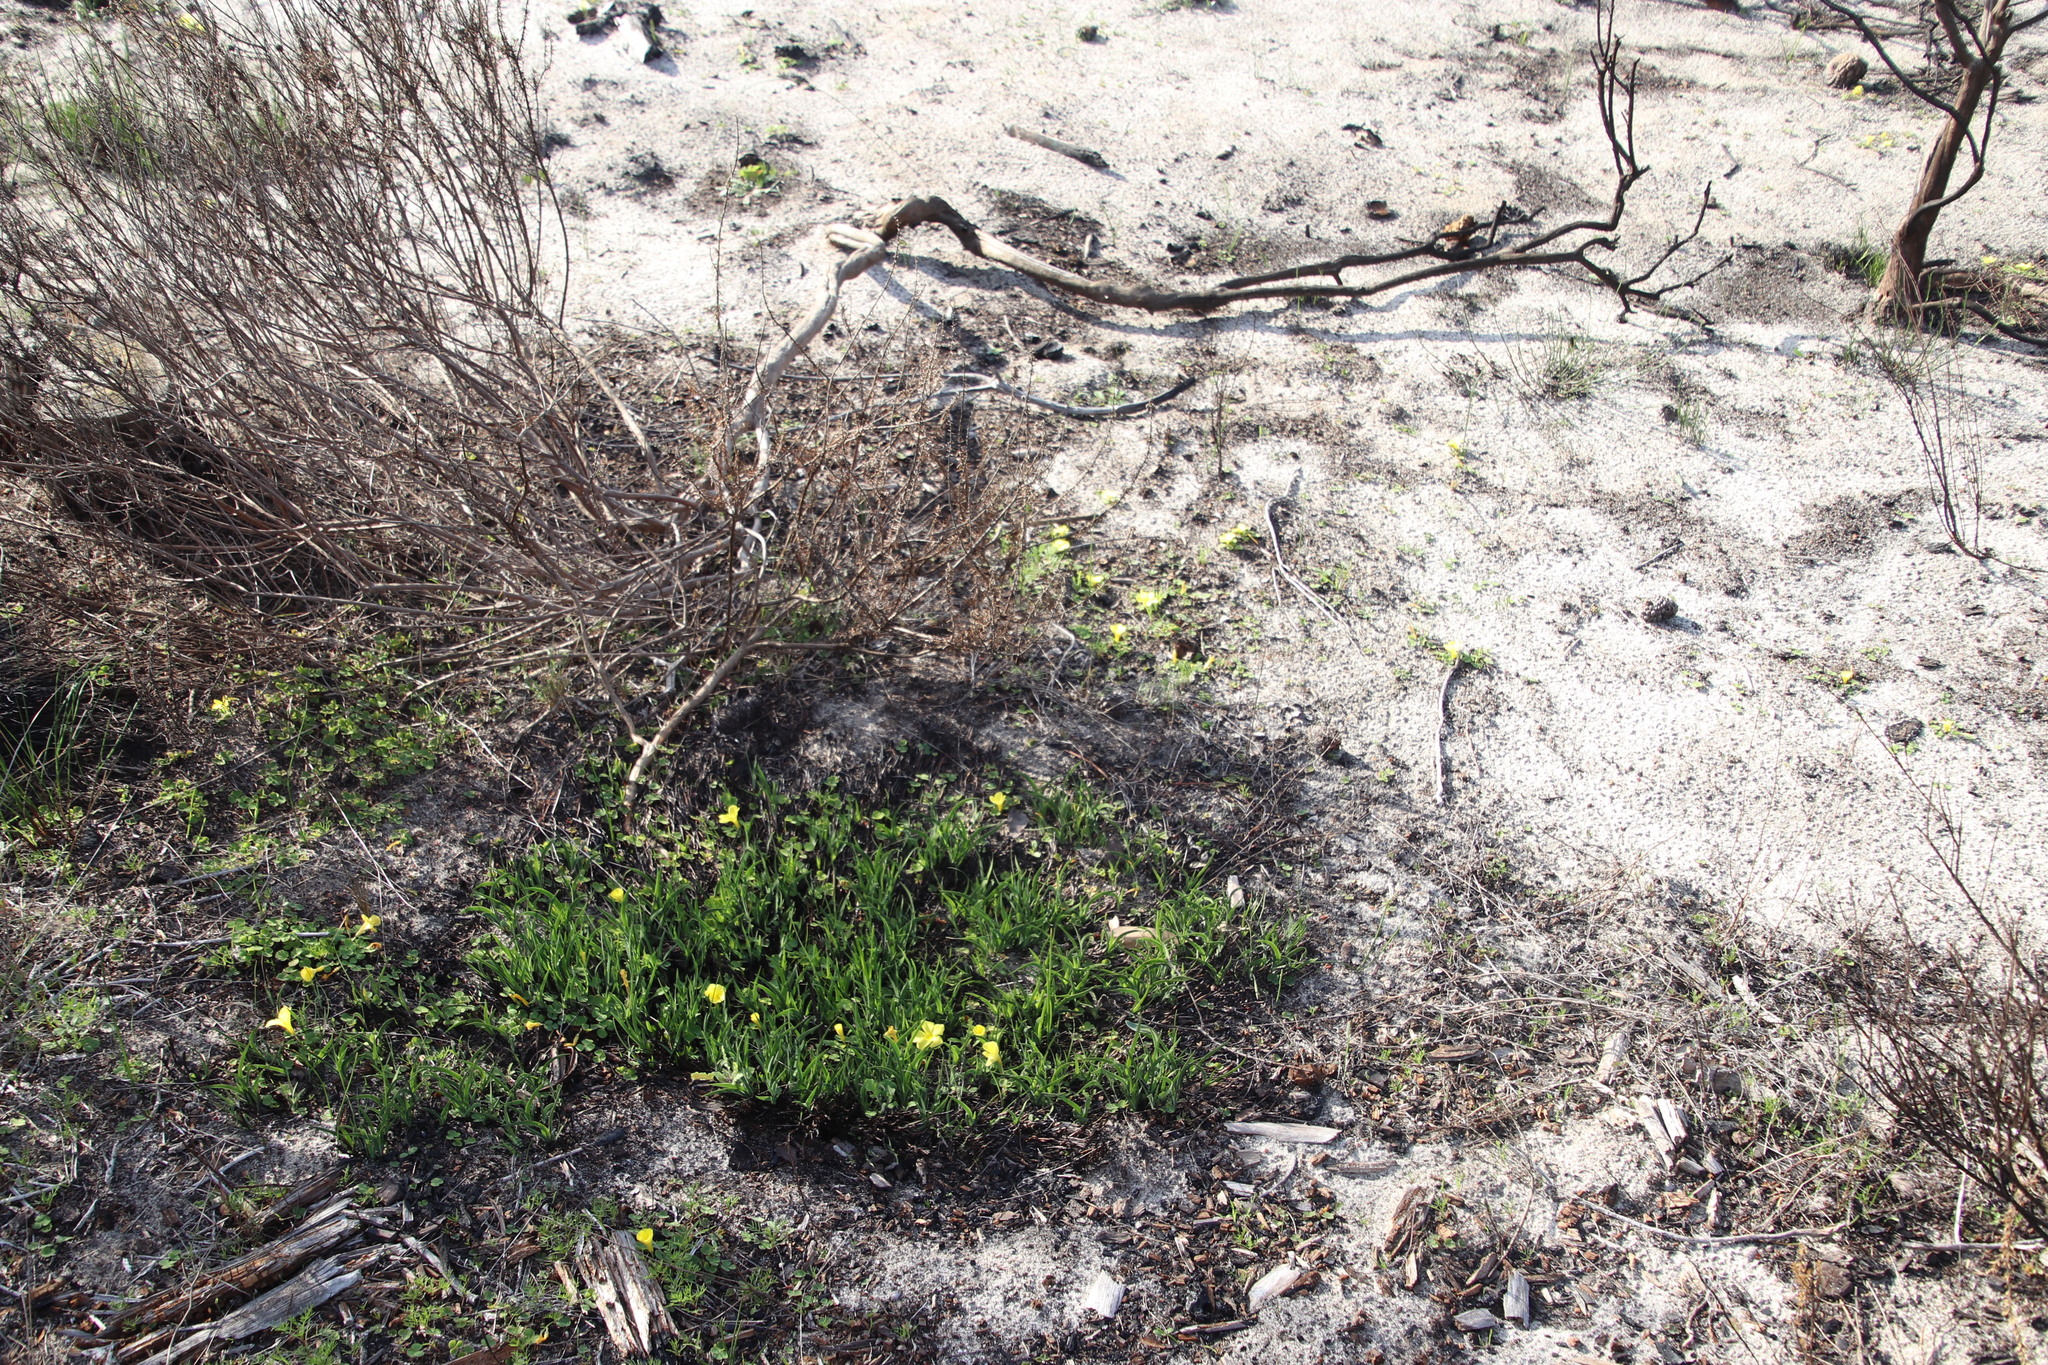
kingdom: Plantae
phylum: Tracheophyta
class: Magnoliopsida
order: Oxalidales
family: Oxalidaceae
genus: Oxalis
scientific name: Oxalis luteola
